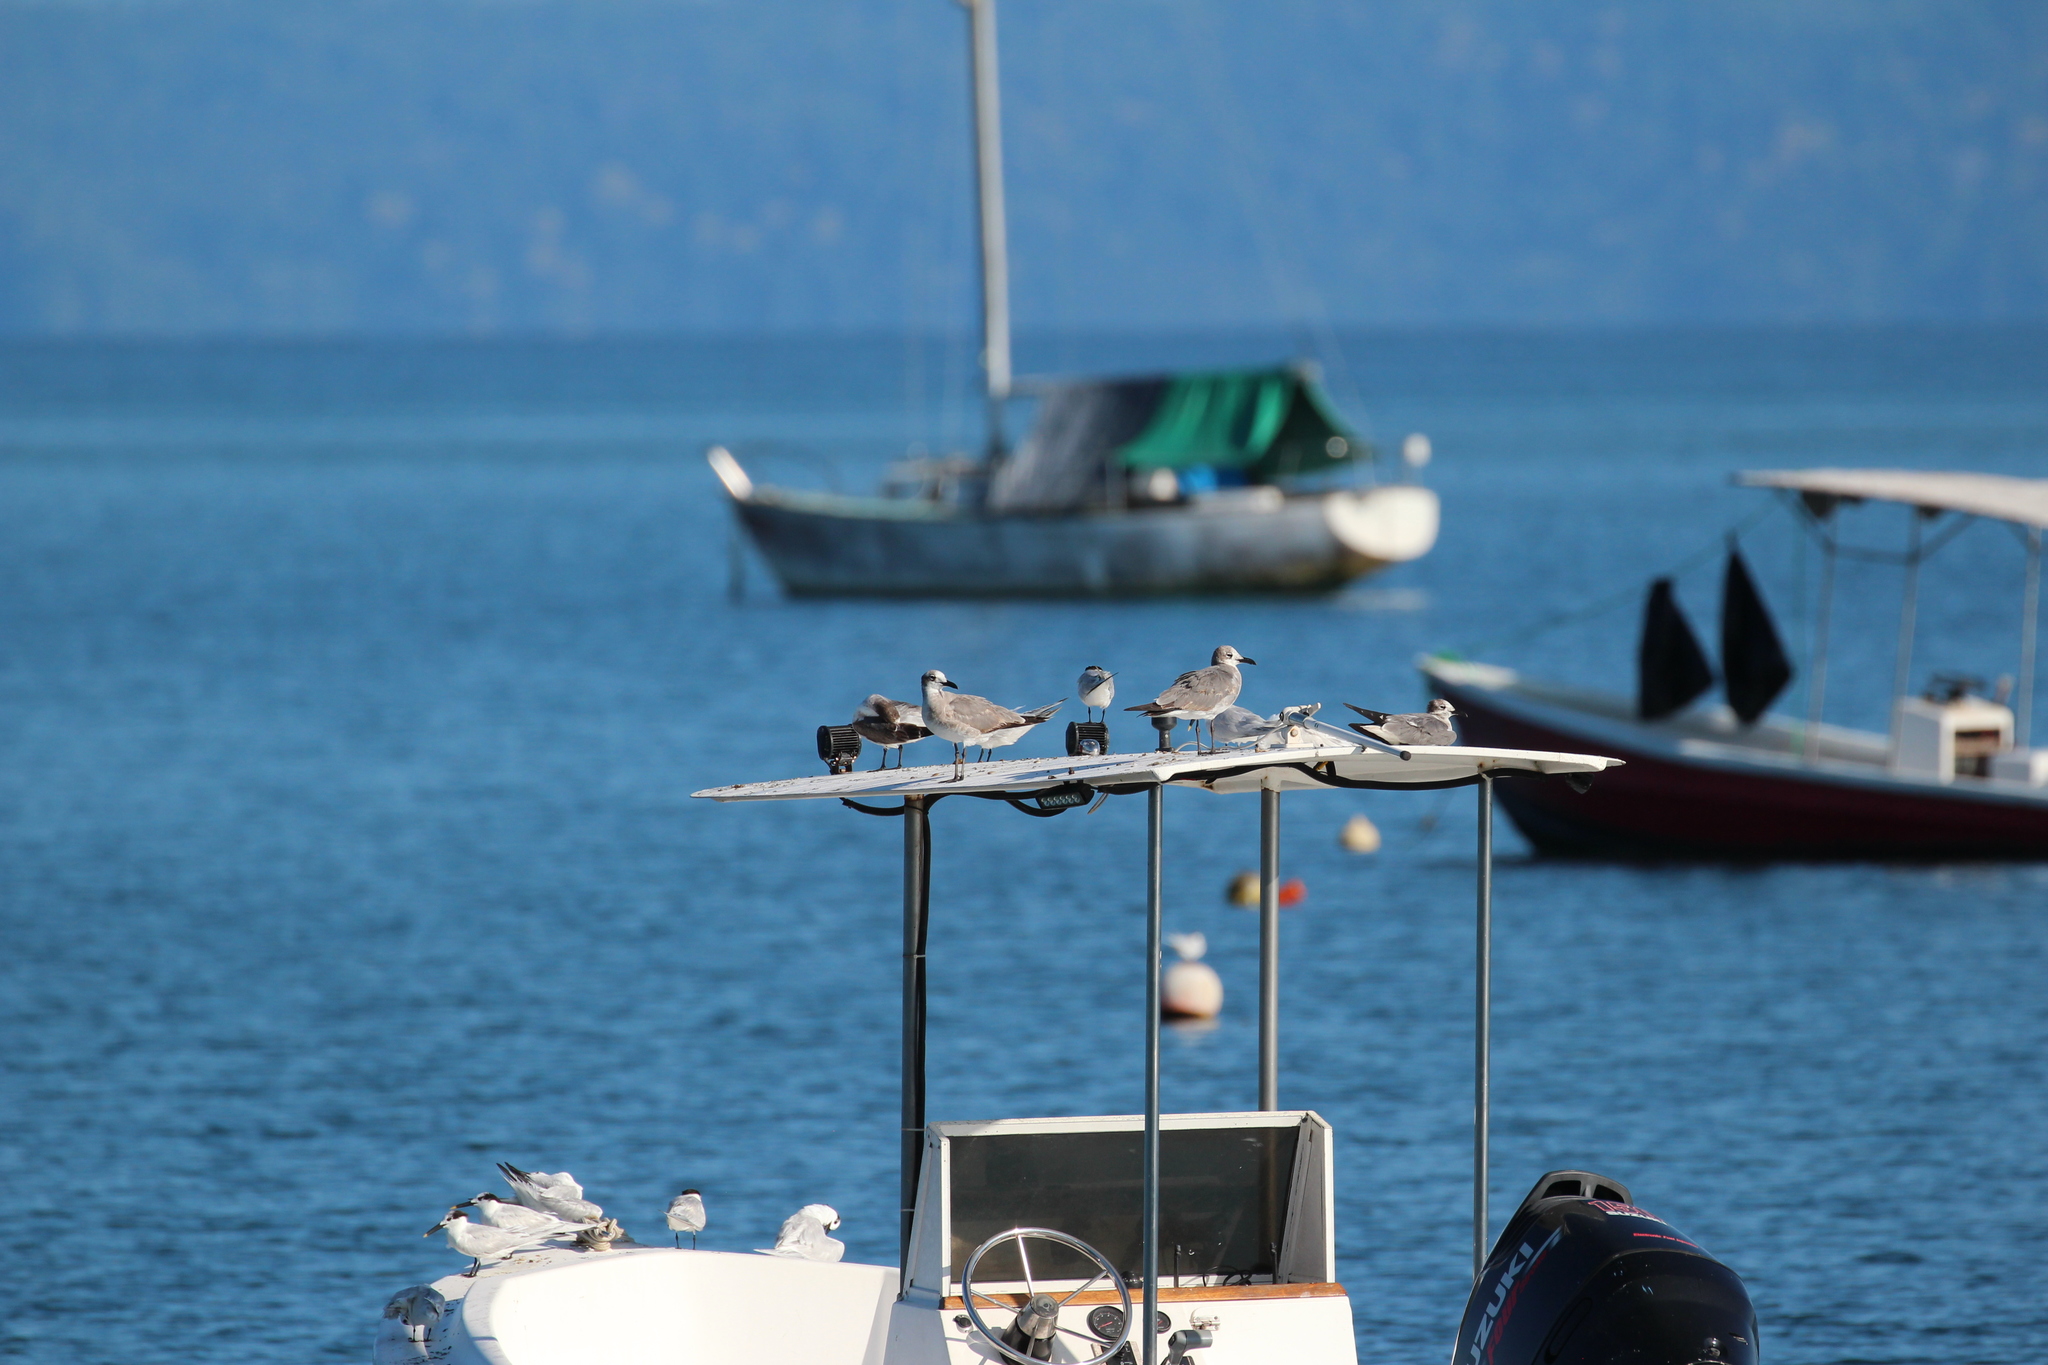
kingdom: Animalia
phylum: Chordata
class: Aves
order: Charadriiformes
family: Laridae
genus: Thalasseus
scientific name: Thalasseus sandvicensis
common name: Sandwich tern
